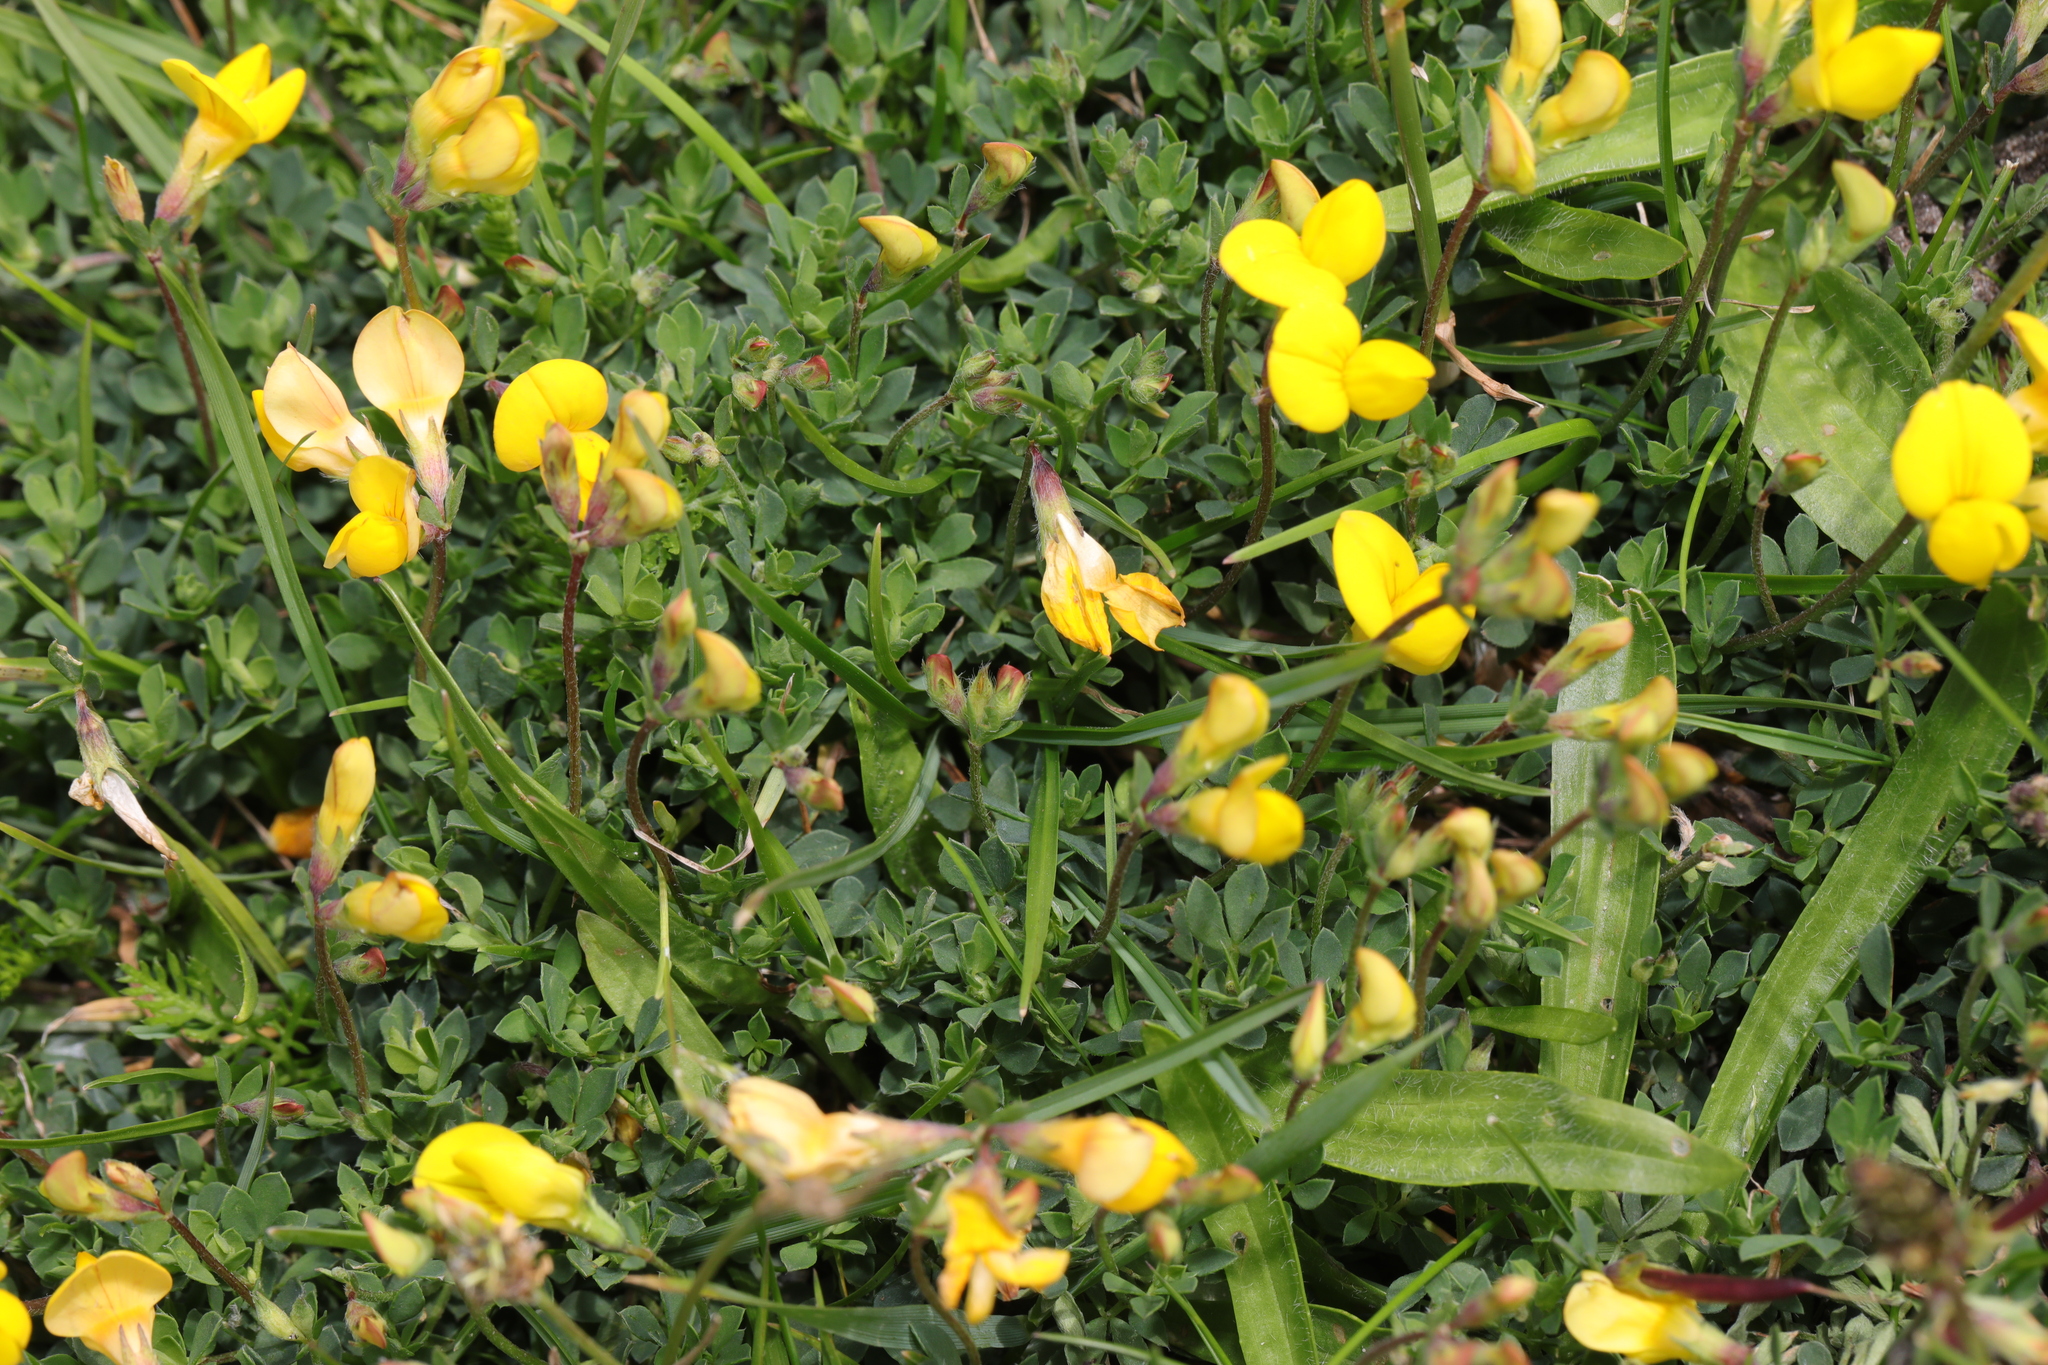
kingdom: Plantae
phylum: Tracheophyta
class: Magnoliopsida
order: Fabales
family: Fabaceae
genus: Lotus
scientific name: Lotus corniculatus
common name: Common bird's-foot-trefoil
